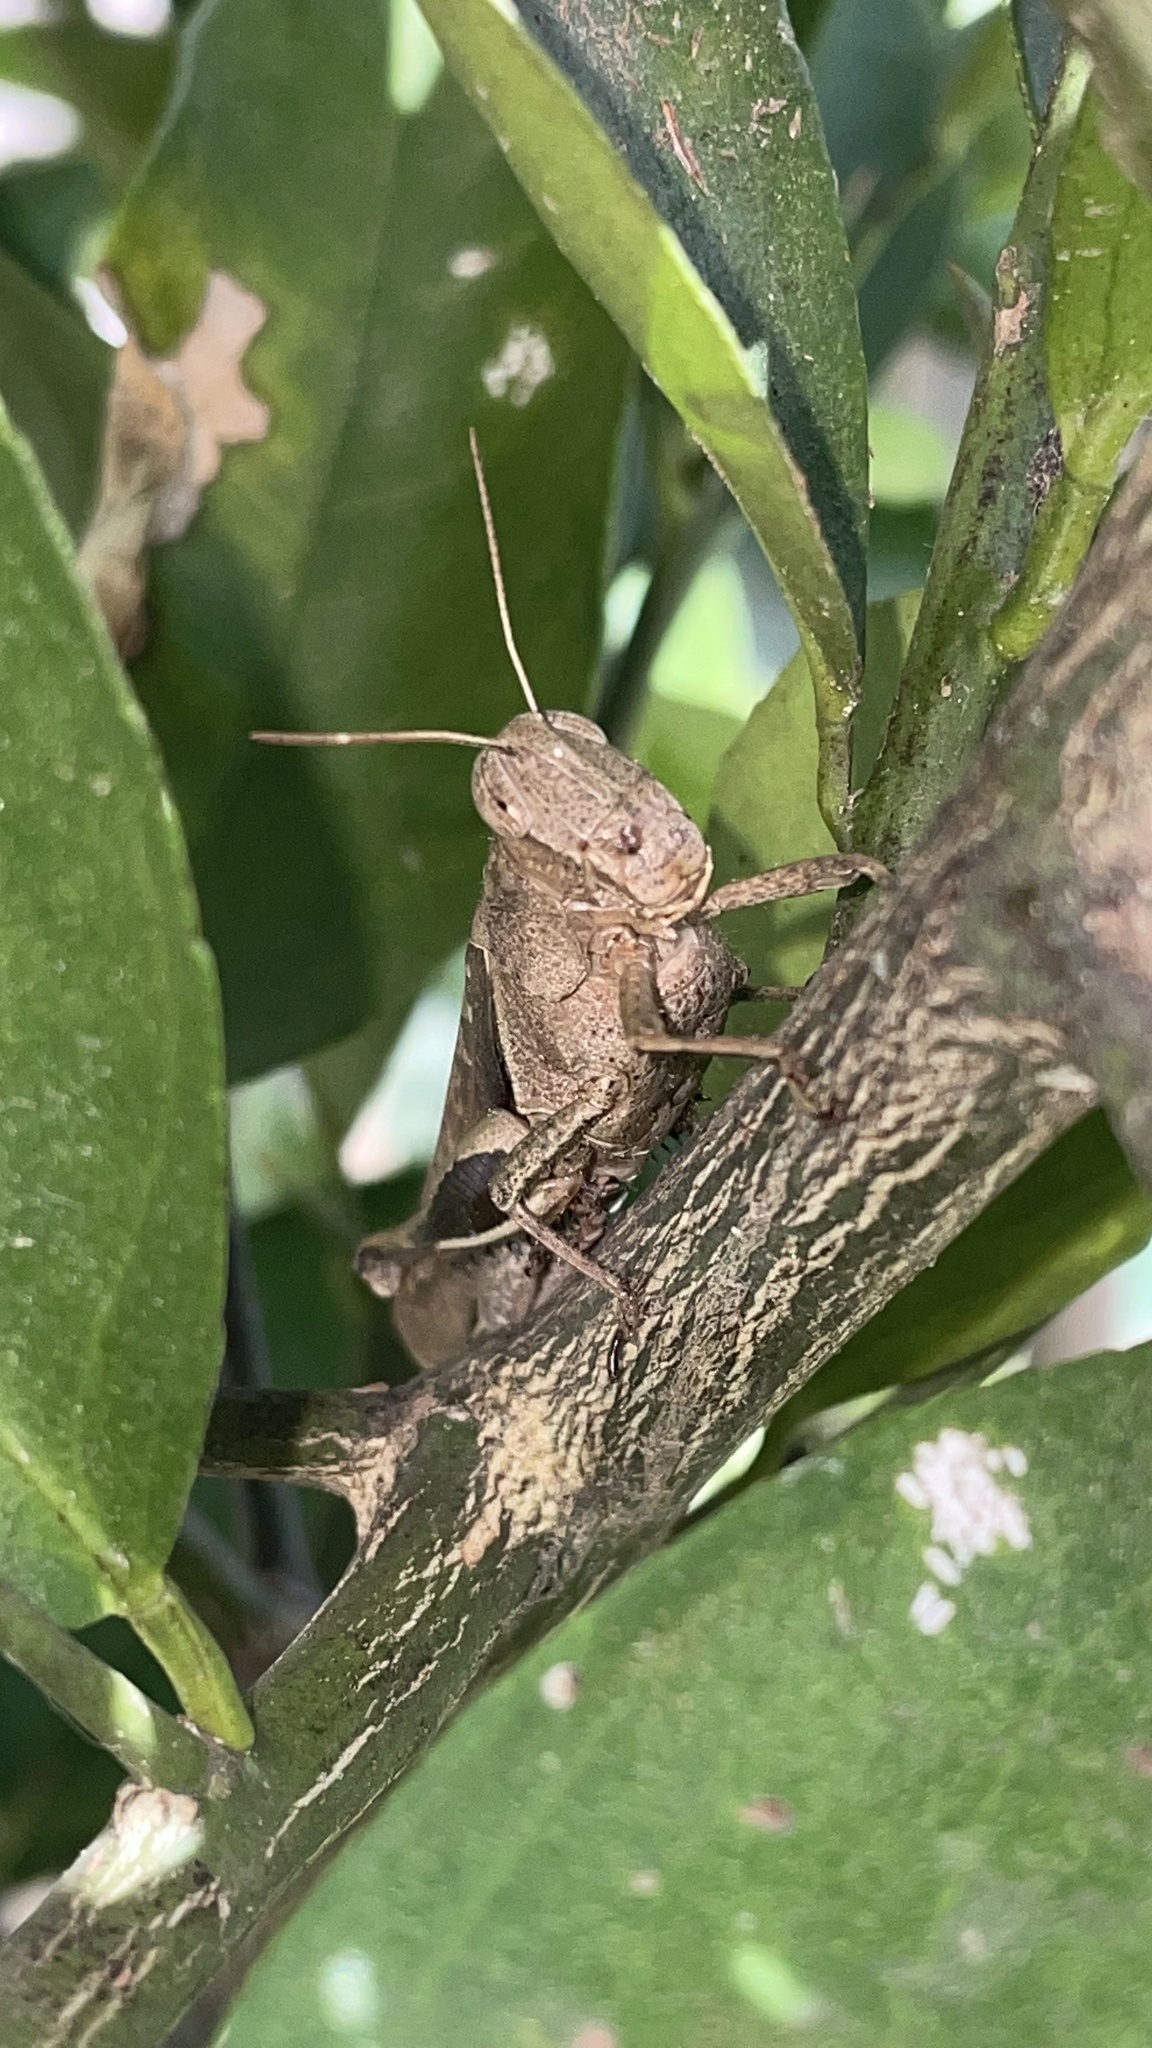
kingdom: Animalia
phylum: Arthropoda
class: Insecta
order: Orthoptera
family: Acrididae
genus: Abracris
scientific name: Abracris flavolineata
